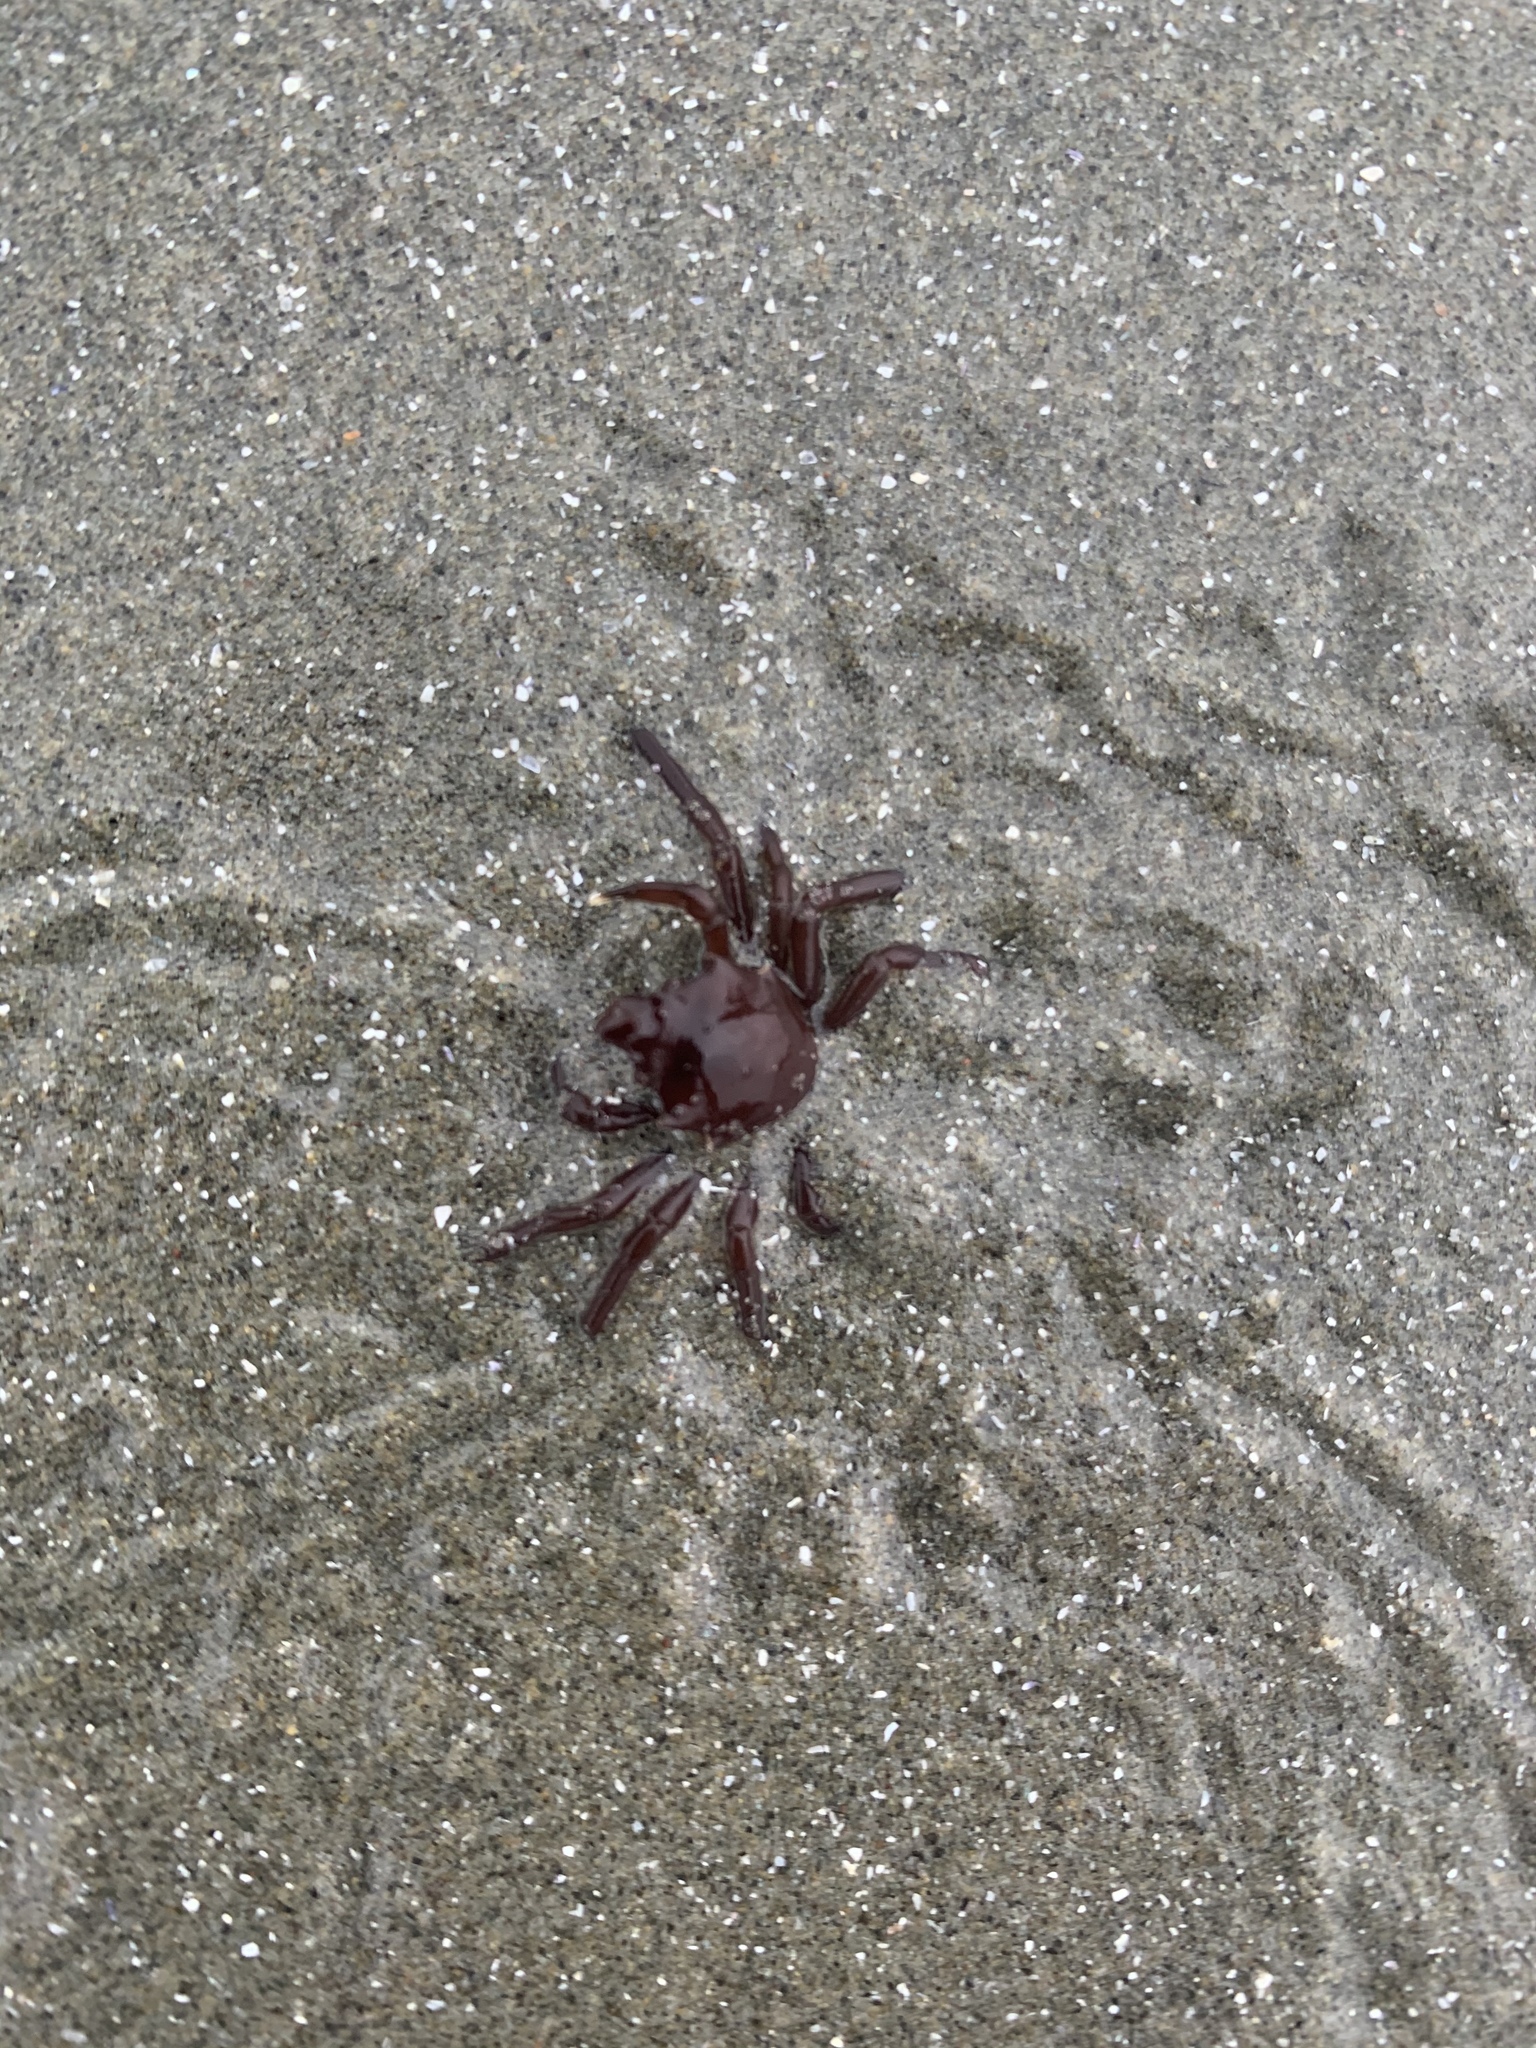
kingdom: Animalia
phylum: Arthropoda
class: Malacostraca
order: Decapoda
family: Epialtidae
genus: Pugettia
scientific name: Pugettia producta
